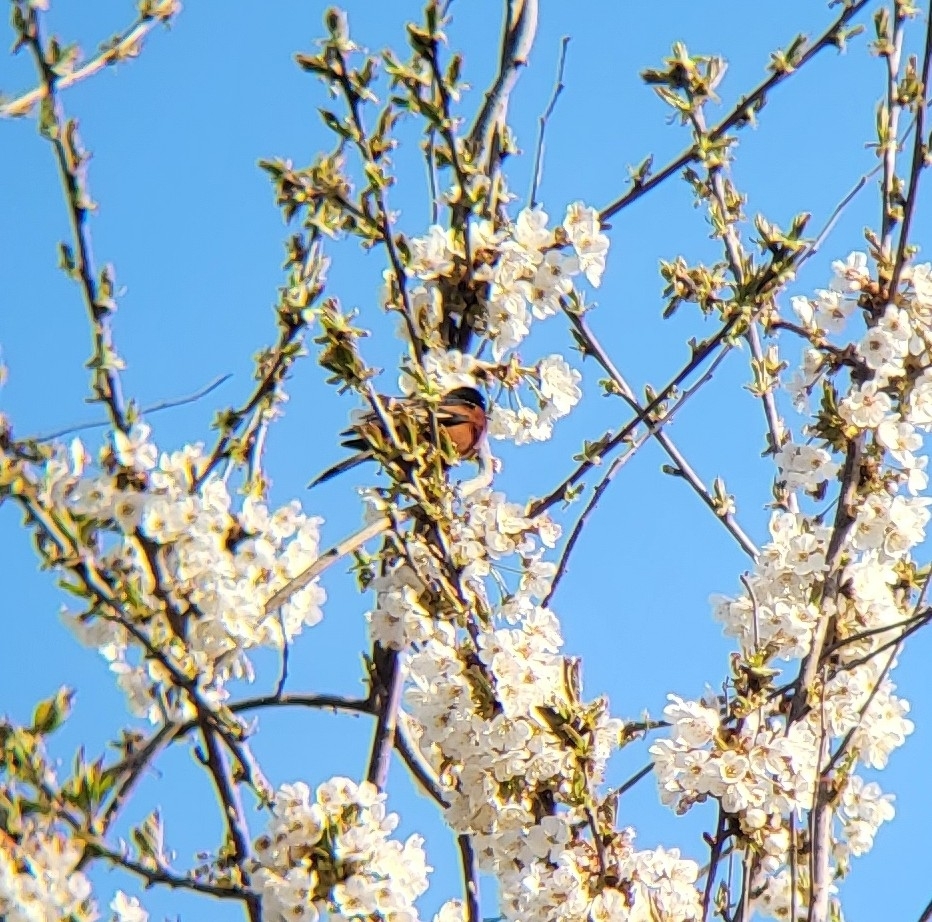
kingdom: Animalia
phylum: Chordata
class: Aves
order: Passeriformes
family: Icteridae
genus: Icterus
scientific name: Icterus spurius
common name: Orchard oriole
